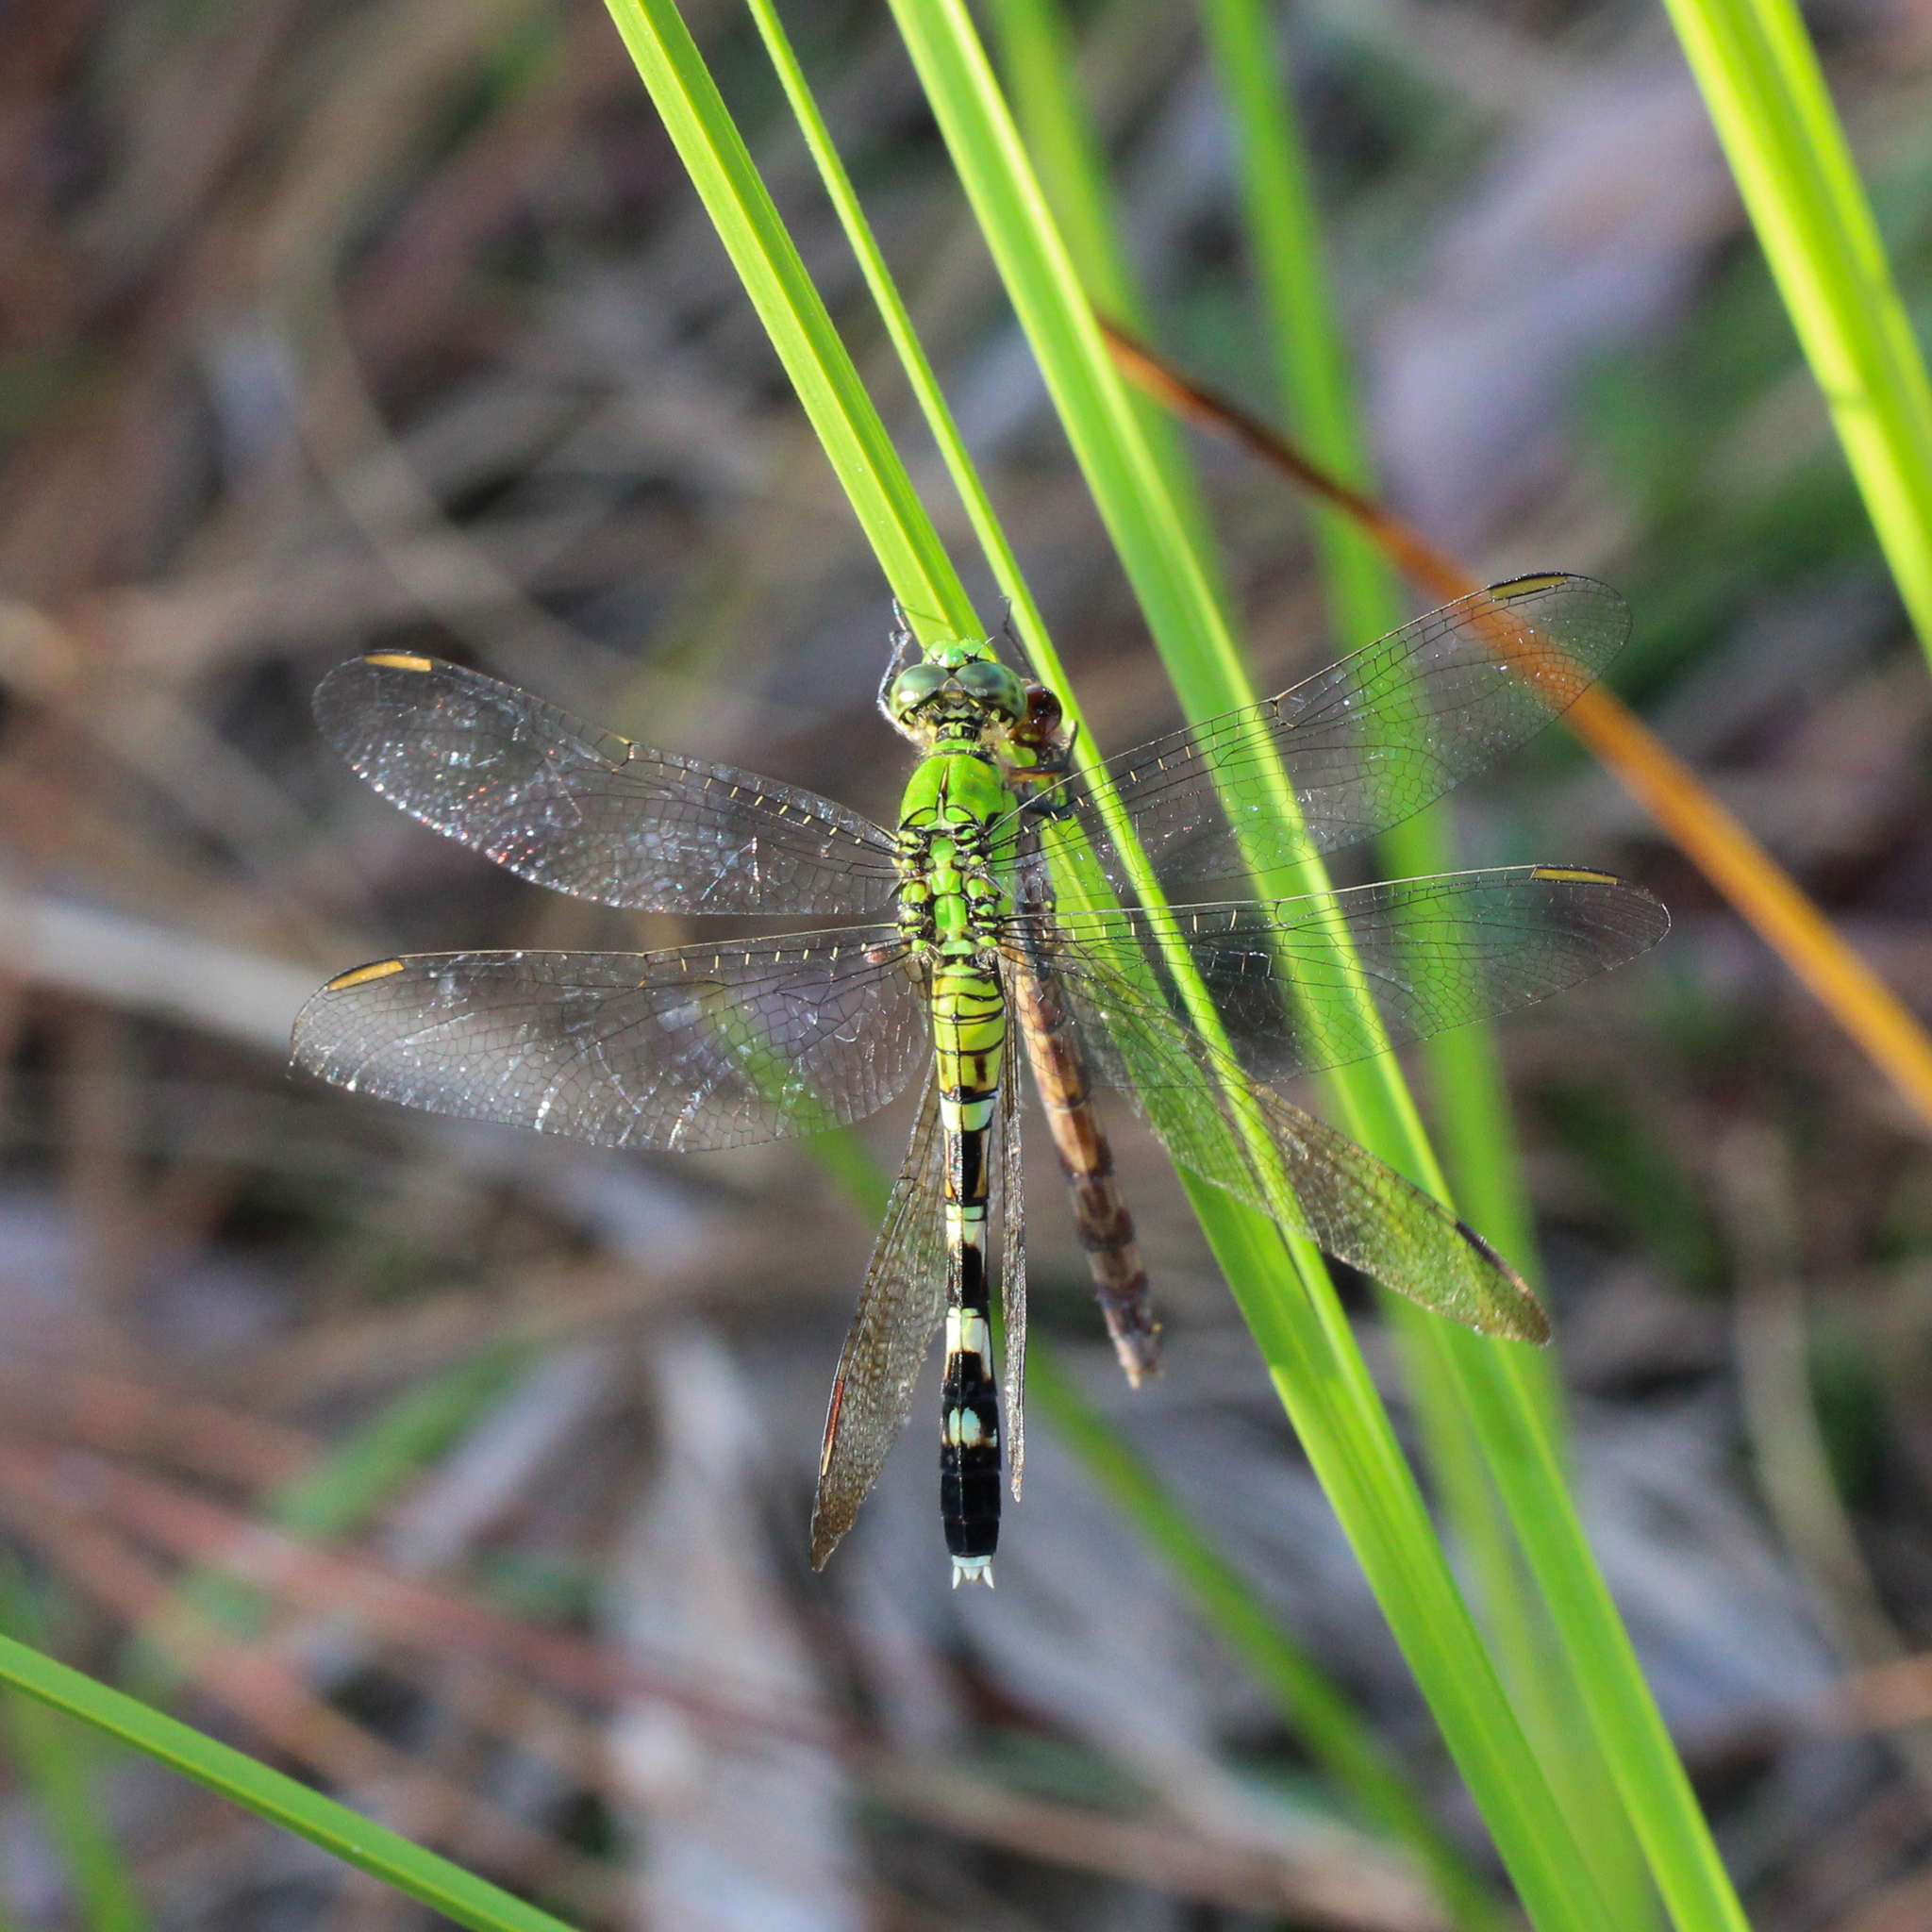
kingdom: Animalia
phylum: Arthropoda
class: Insecta
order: Odonata
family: Libellulidae
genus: Erythemis
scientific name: Erythemis simplicicollis
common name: Eastern pondhawk
